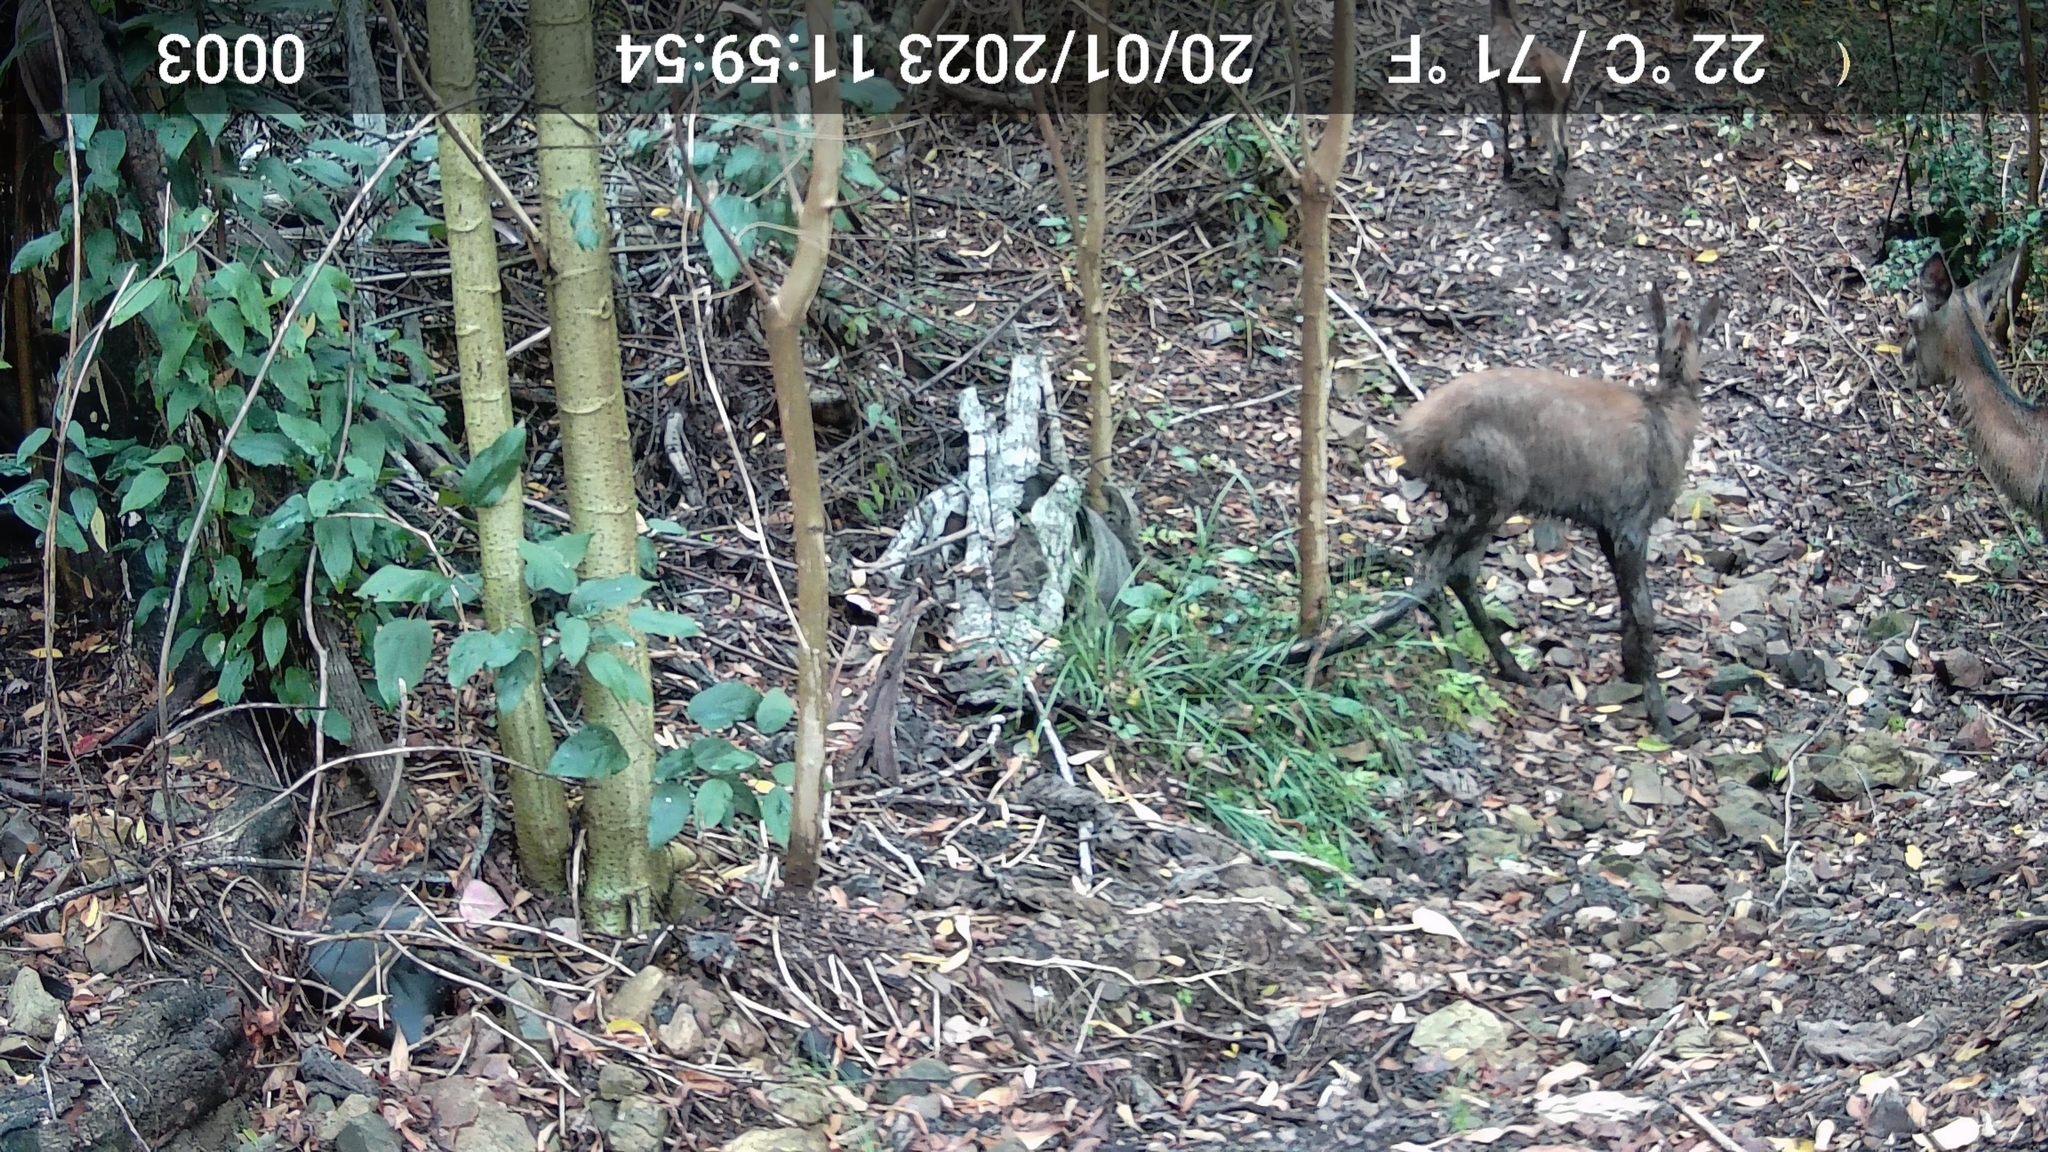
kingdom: Animalia
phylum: Chordata
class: Mammalia
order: Artiodactyla
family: Cervidae
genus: Cervus
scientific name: Cervus elaphus
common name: Red deer
